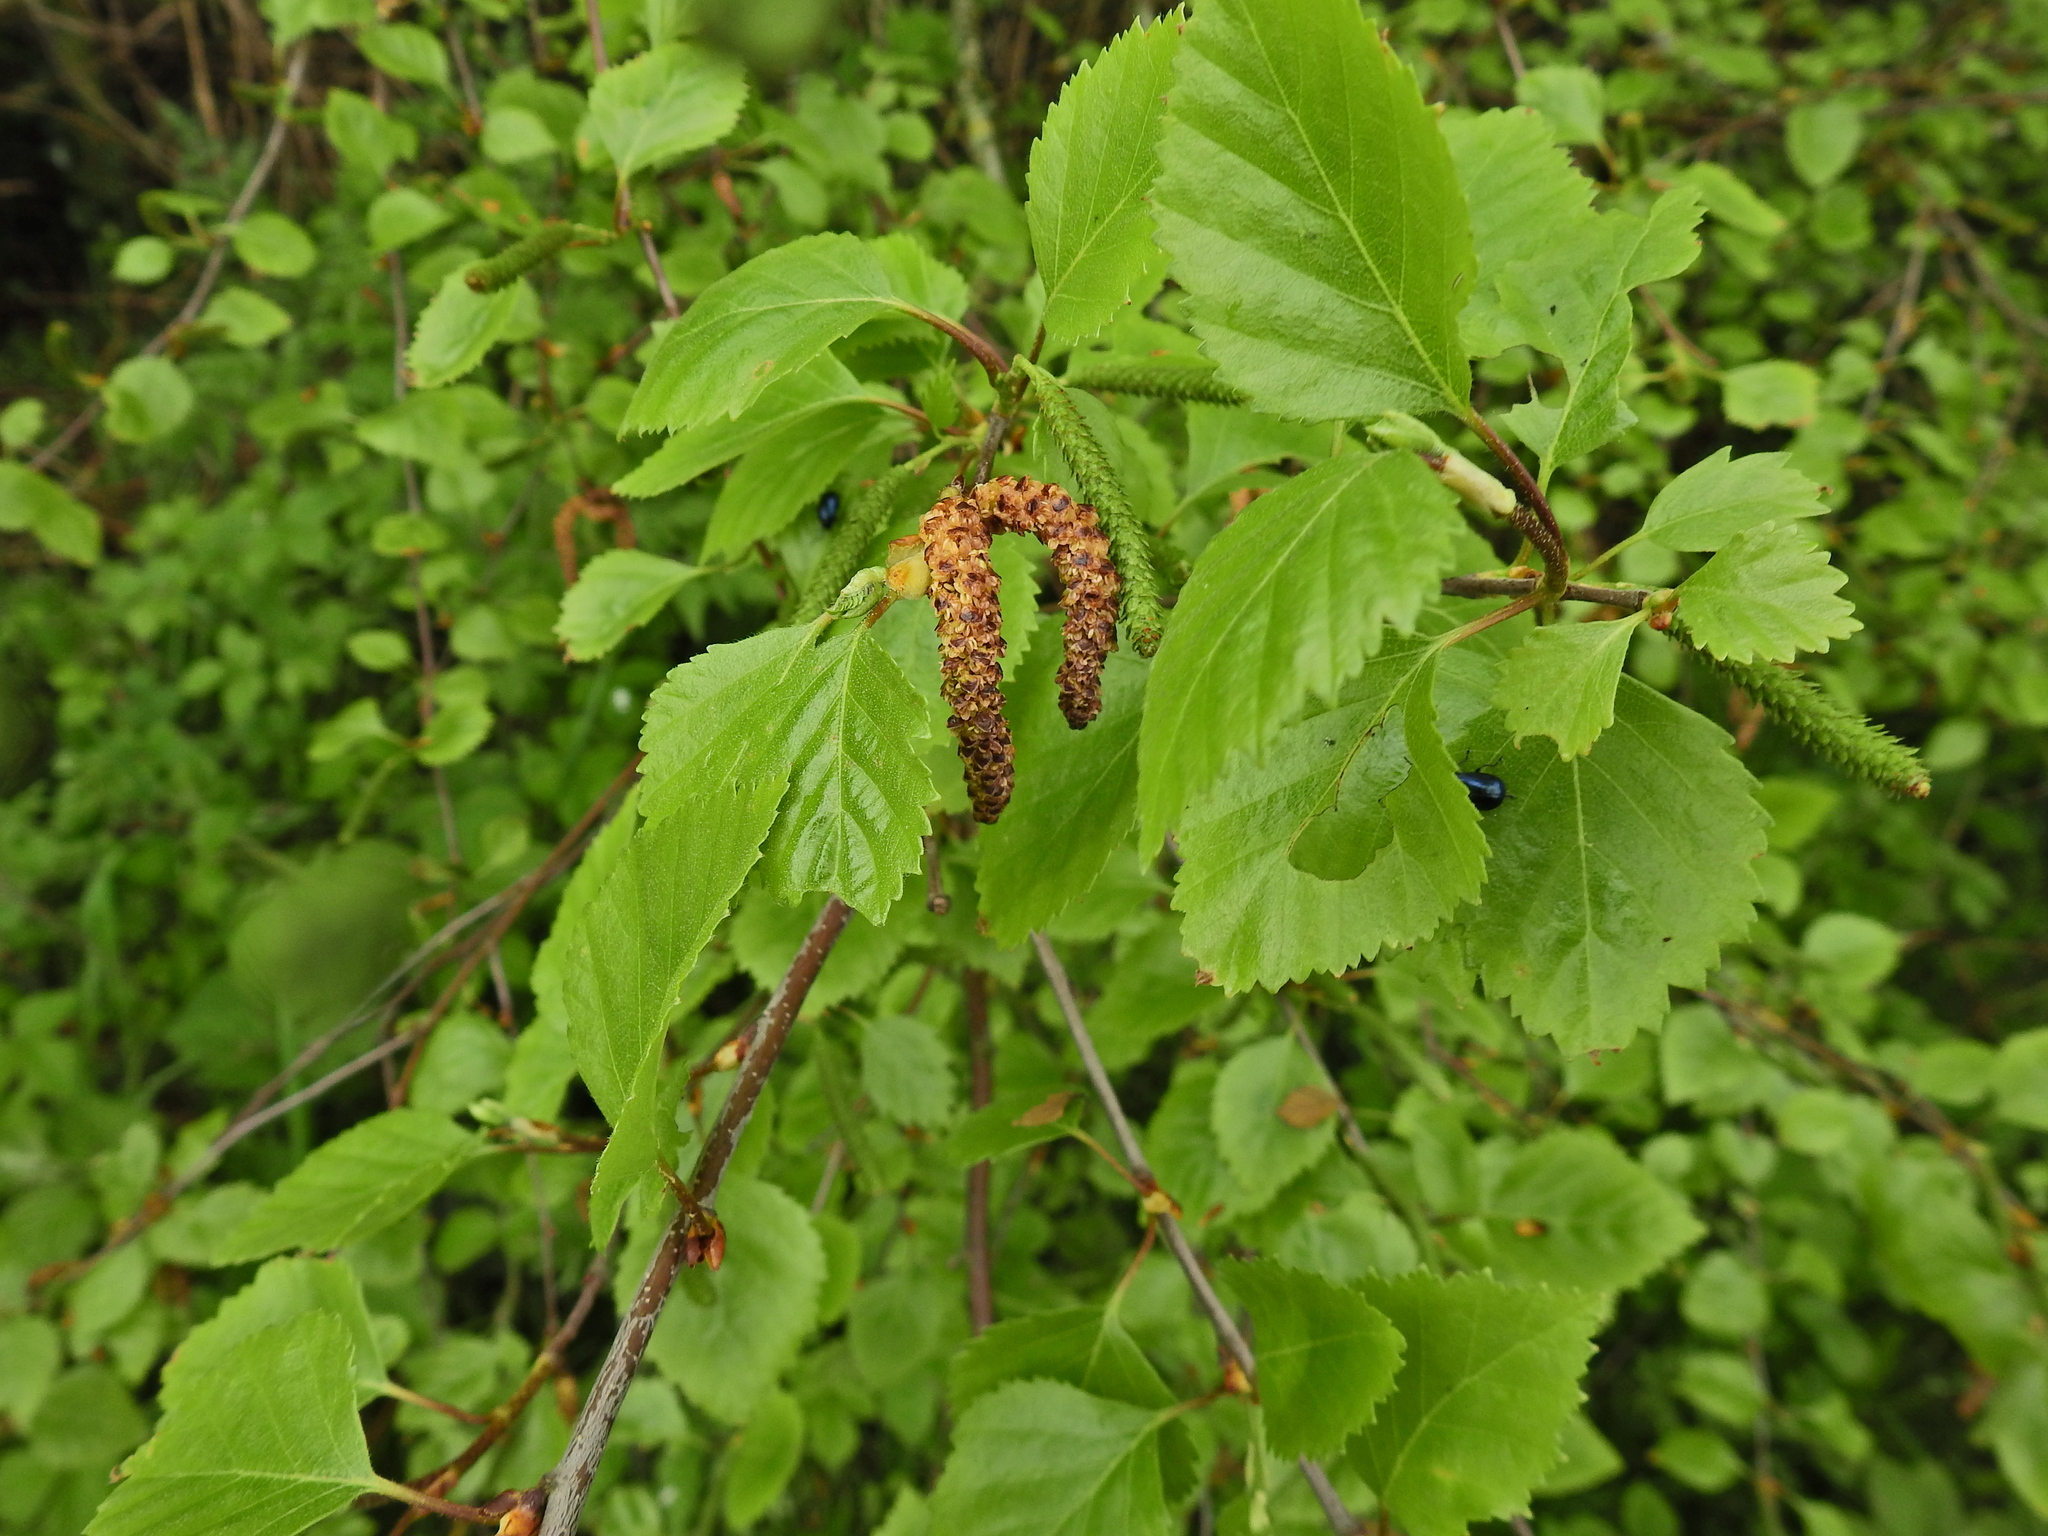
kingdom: Plantae
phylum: Tracheophyta
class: Magnoliopsida
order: Fagales
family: Betulaceae
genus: Betula
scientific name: Betula pendula
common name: Silver birch
